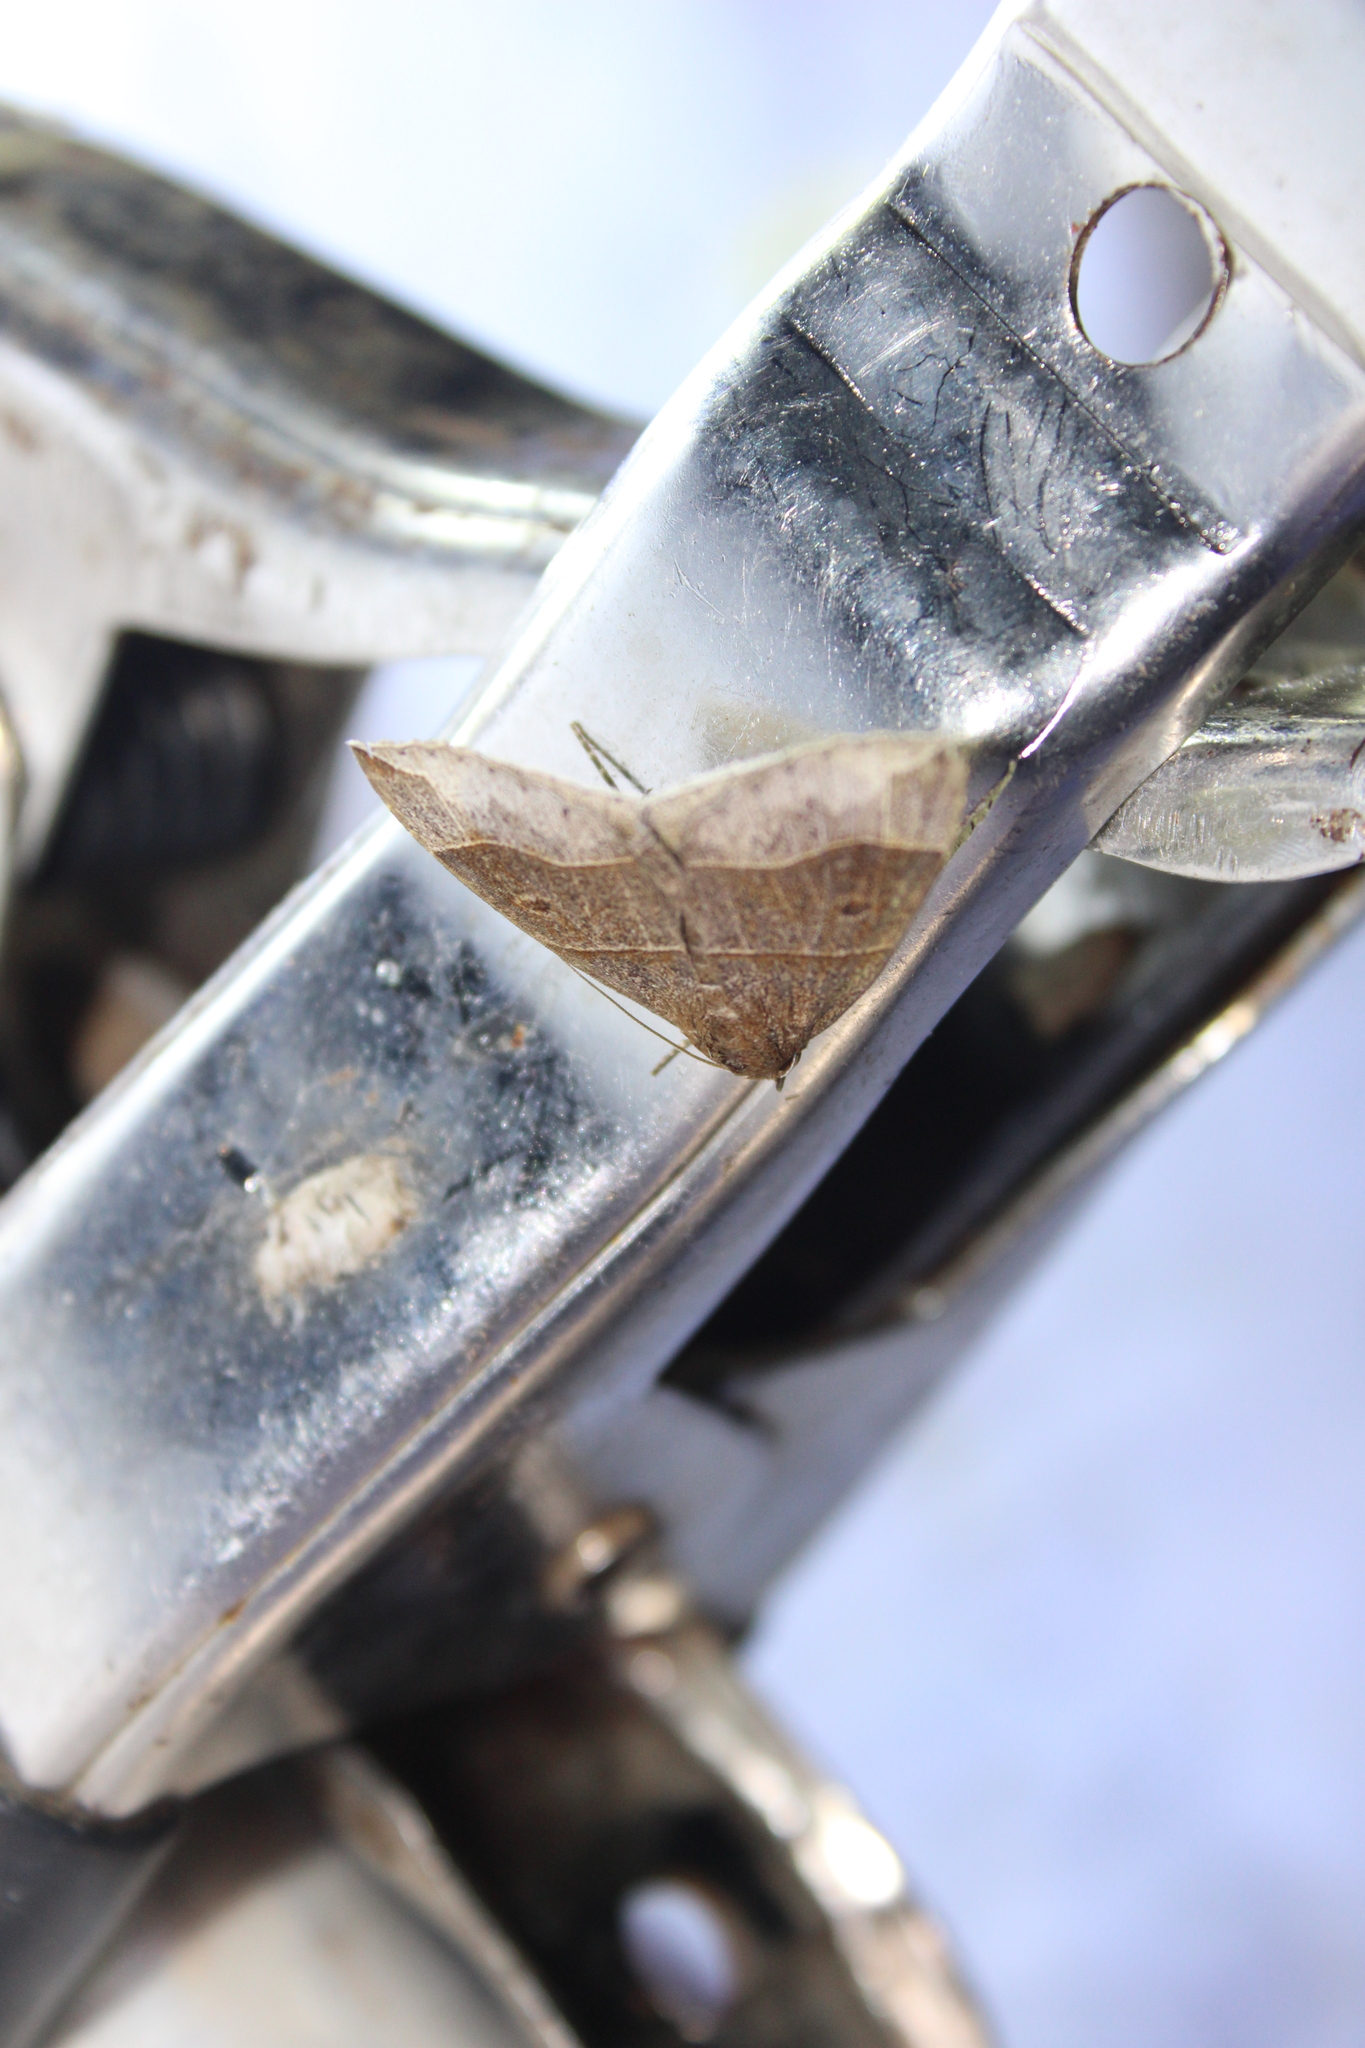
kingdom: Animalia
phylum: Arthropoda
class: Insecta
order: Lepidoptera
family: Erebidae
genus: Parallelia
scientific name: Parallelia bistriaris
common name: Maple looper moth
